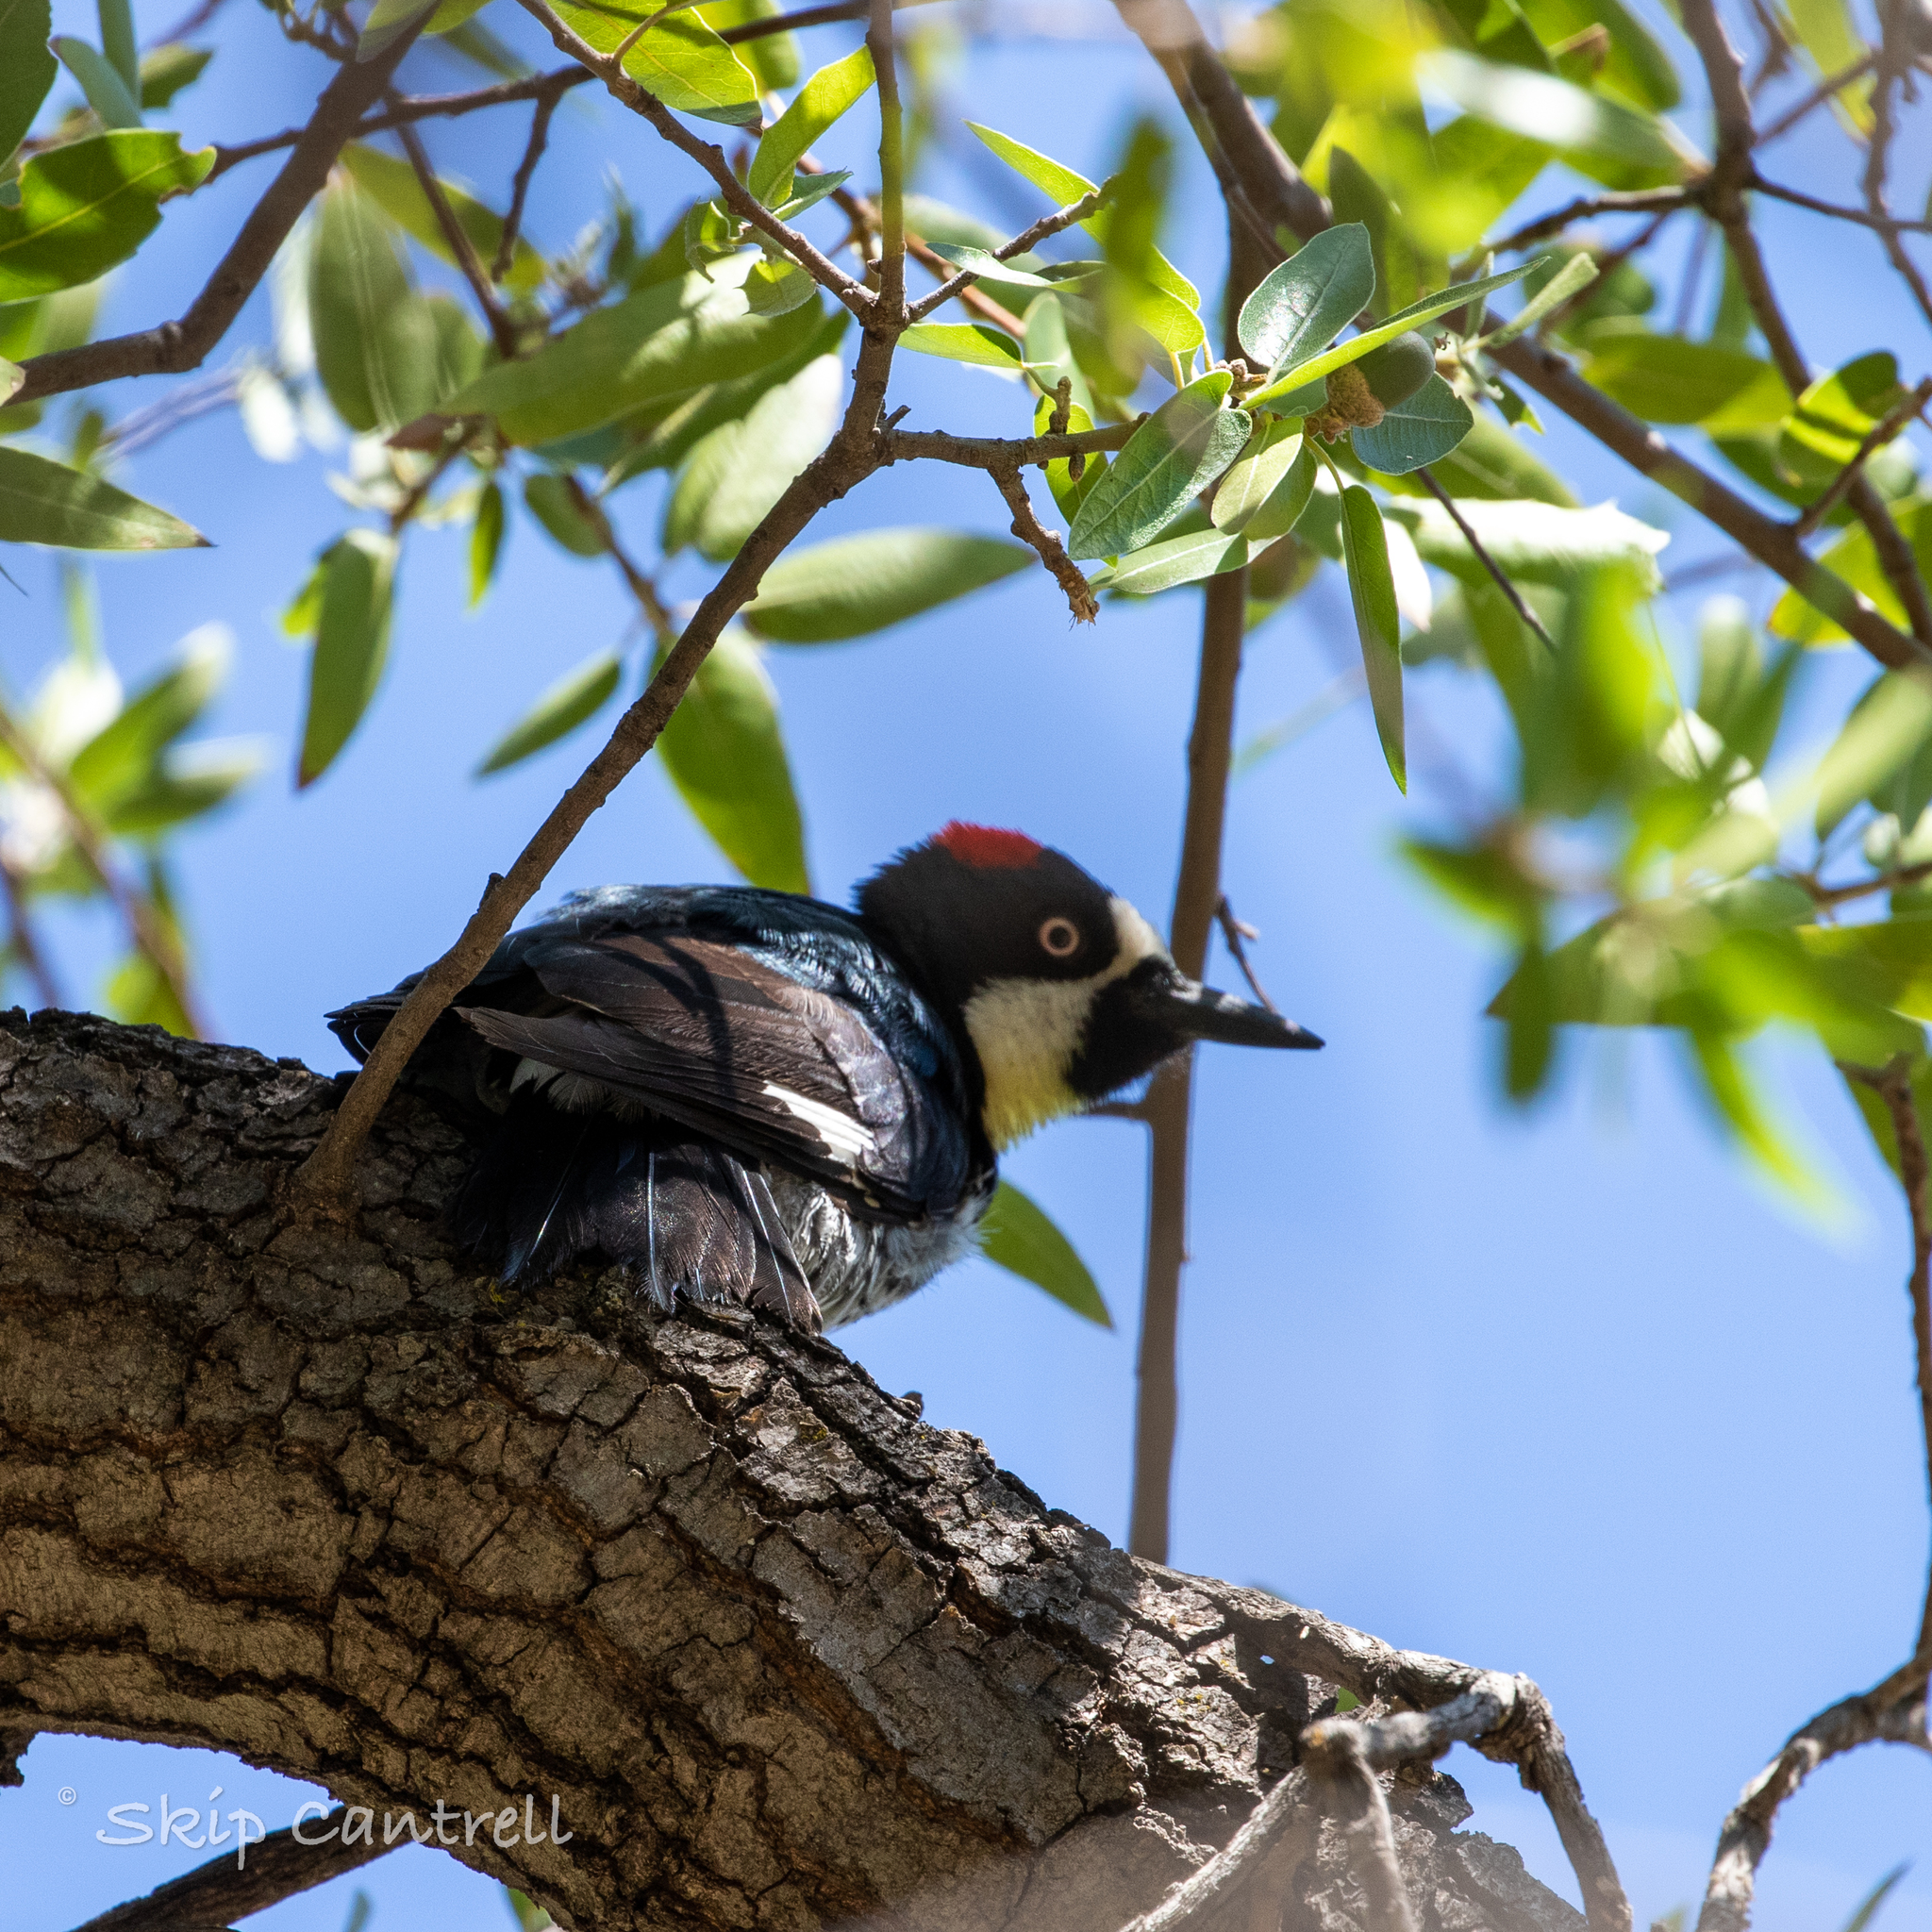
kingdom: Animalia
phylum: Chordata
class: Aves
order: Piciformes
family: Picidae
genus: Melanerpes
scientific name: Melanerpes formicivorus
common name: Acorn woodpecker
